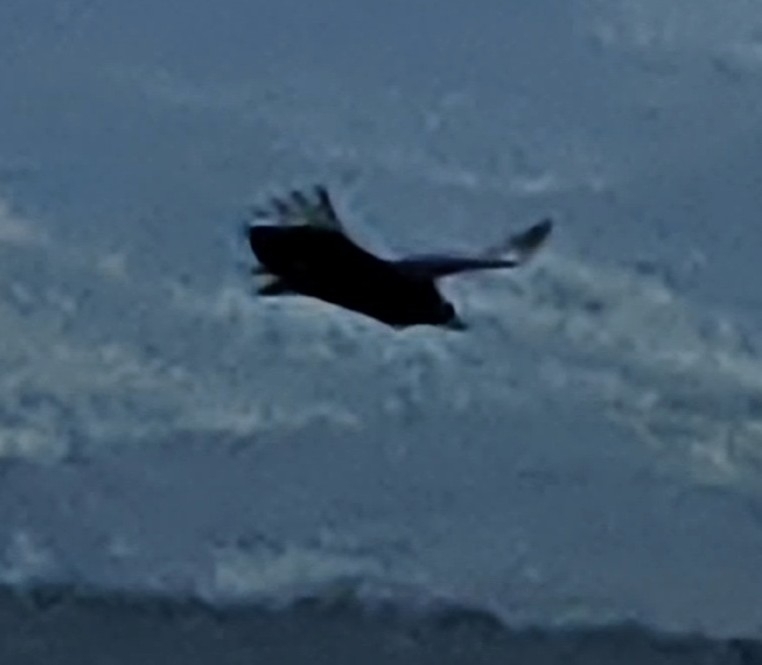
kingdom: Animalia
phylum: Chordata
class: Aves
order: Accipitriformes
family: Cathartidae
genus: Coragyps
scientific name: Coragyps atratus
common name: Black vulture
